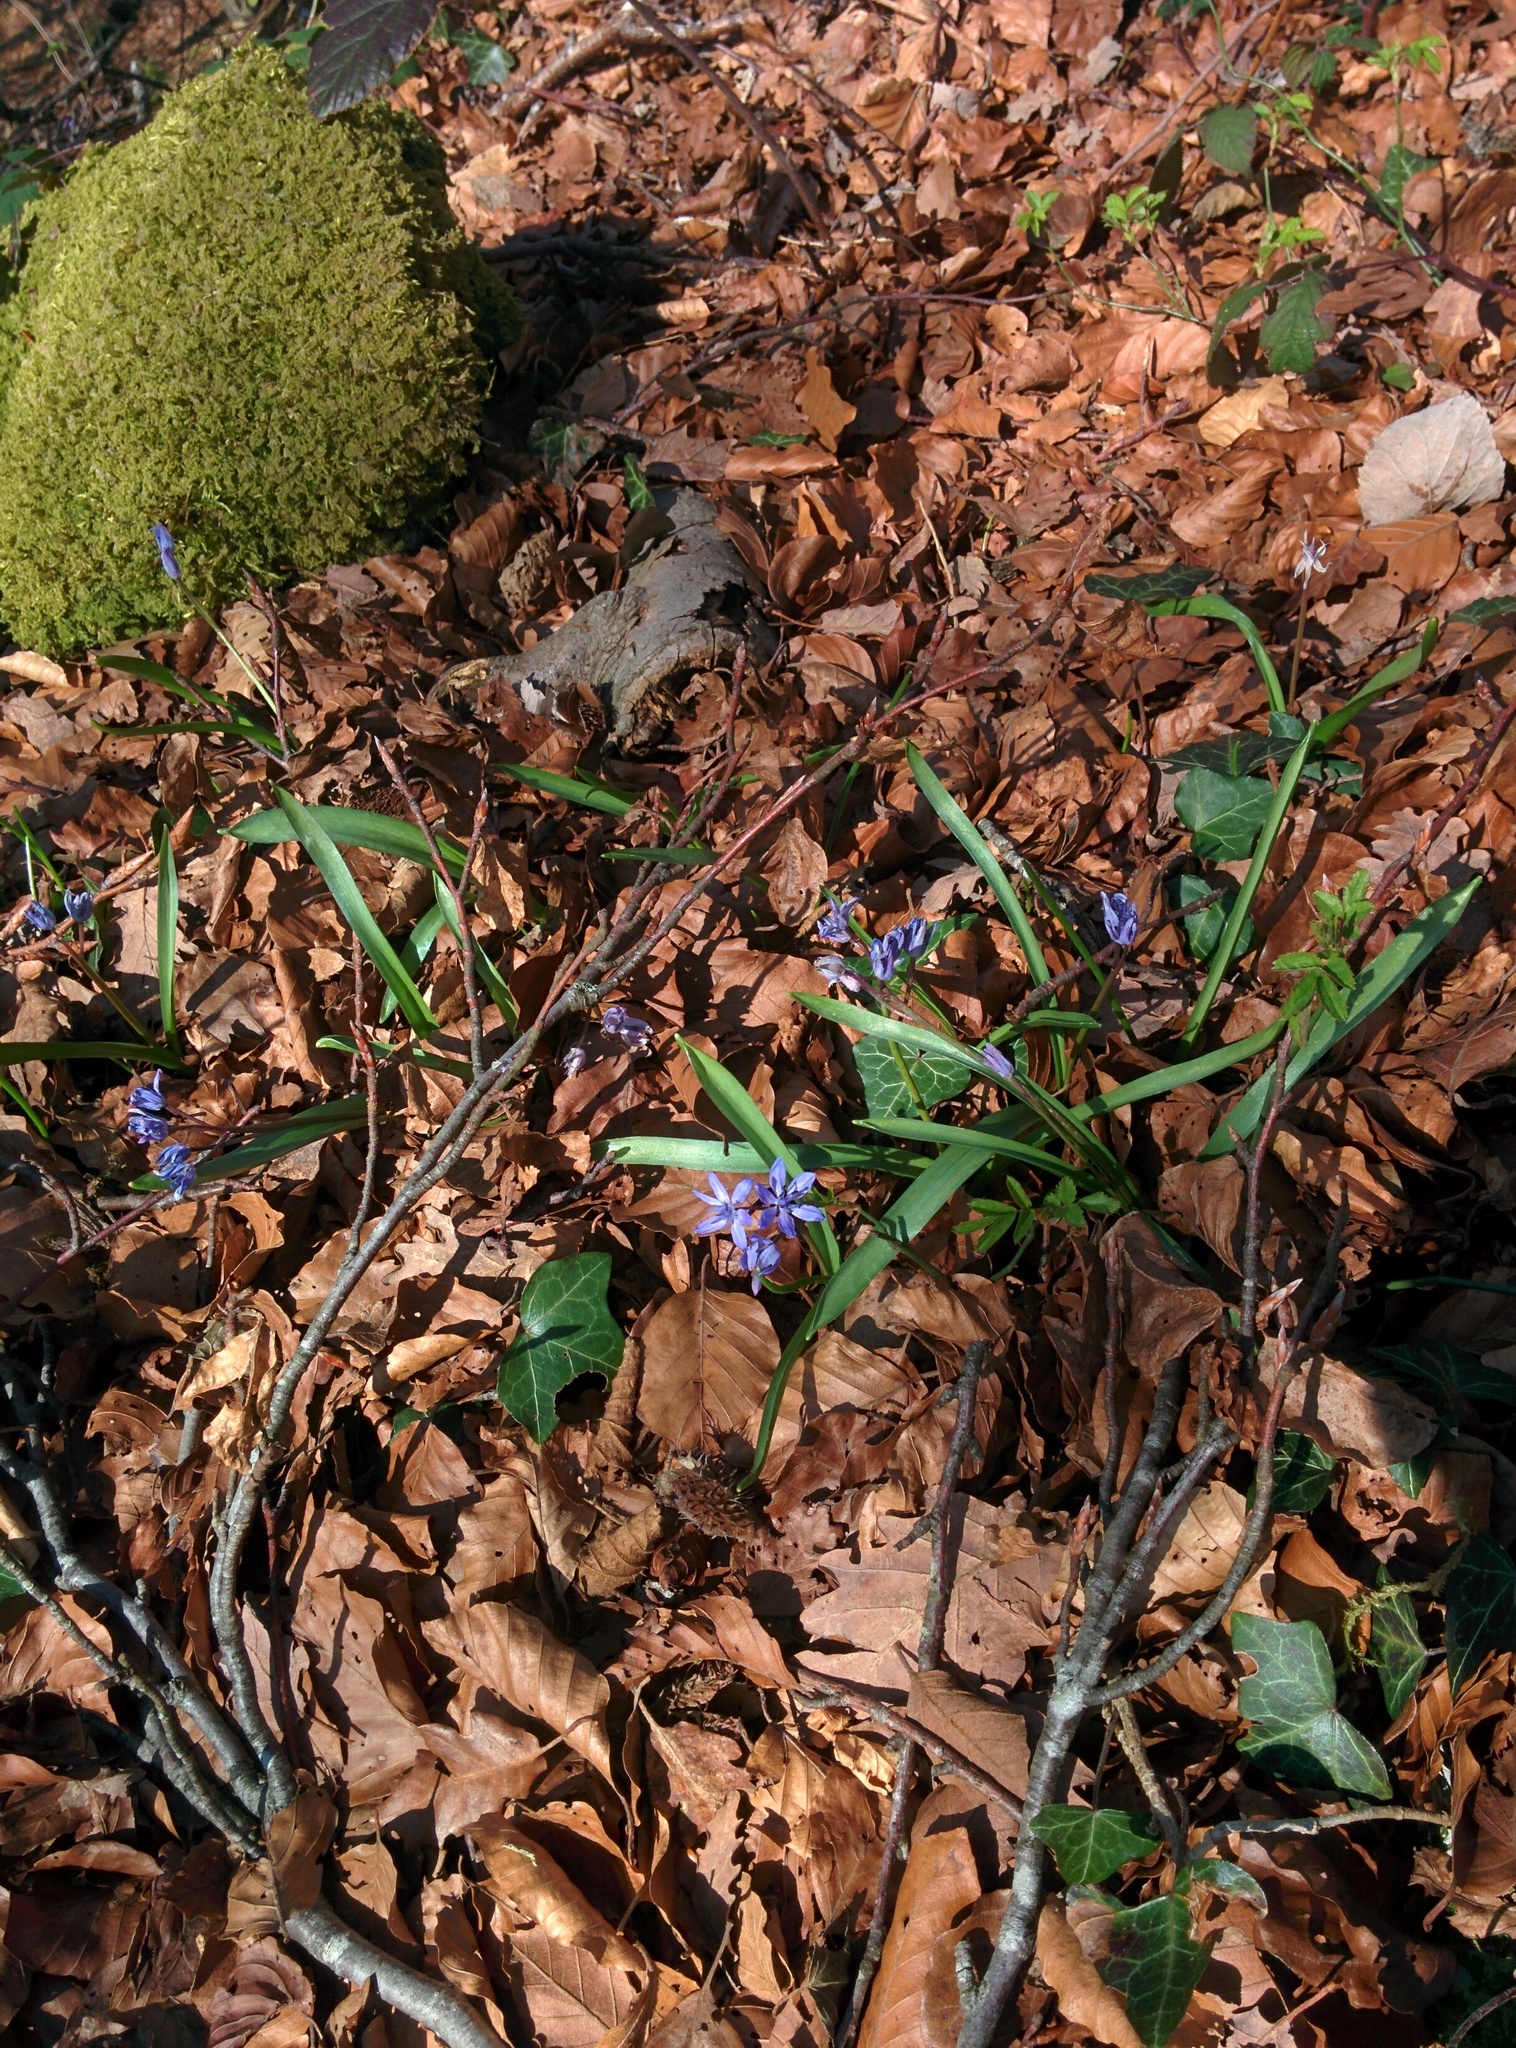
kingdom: Plantae
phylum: Tracheophyta
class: Liliopsida
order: Asparagales
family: Asparagaceae
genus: Scilla
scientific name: Scilla bifolia
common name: Alpine squill
